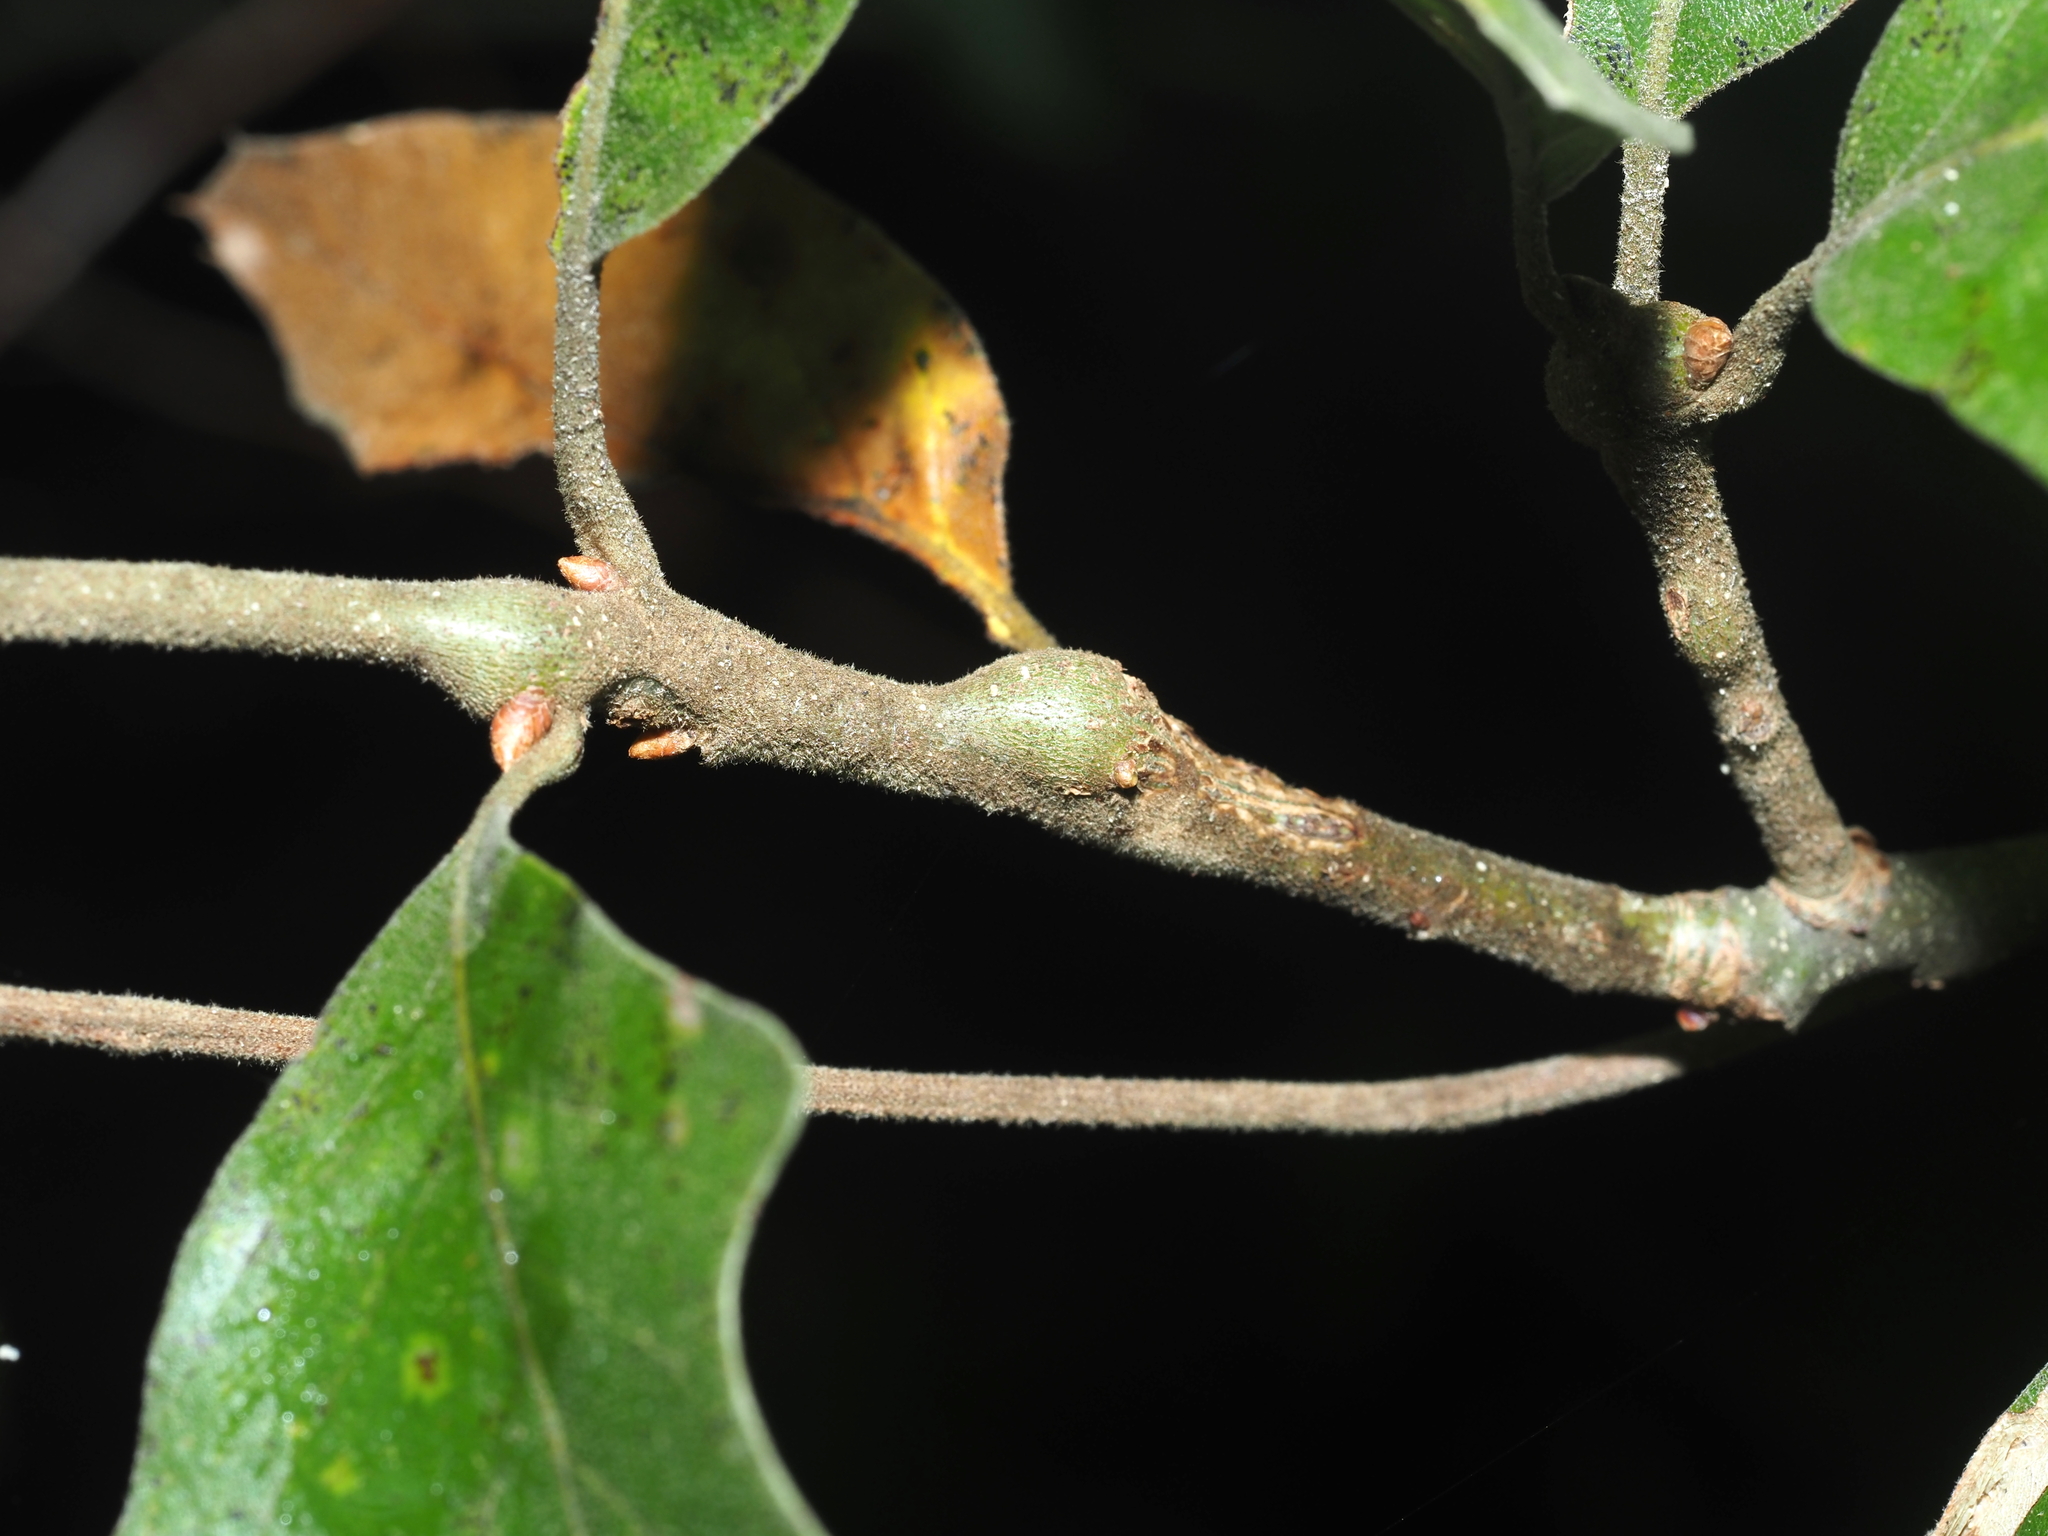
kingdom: Animalia
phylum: Arthropoda
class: Insecta
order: Hymenoptera
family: Cynipidae
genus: Zapatella
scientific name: Zapatella quercusmedullae
